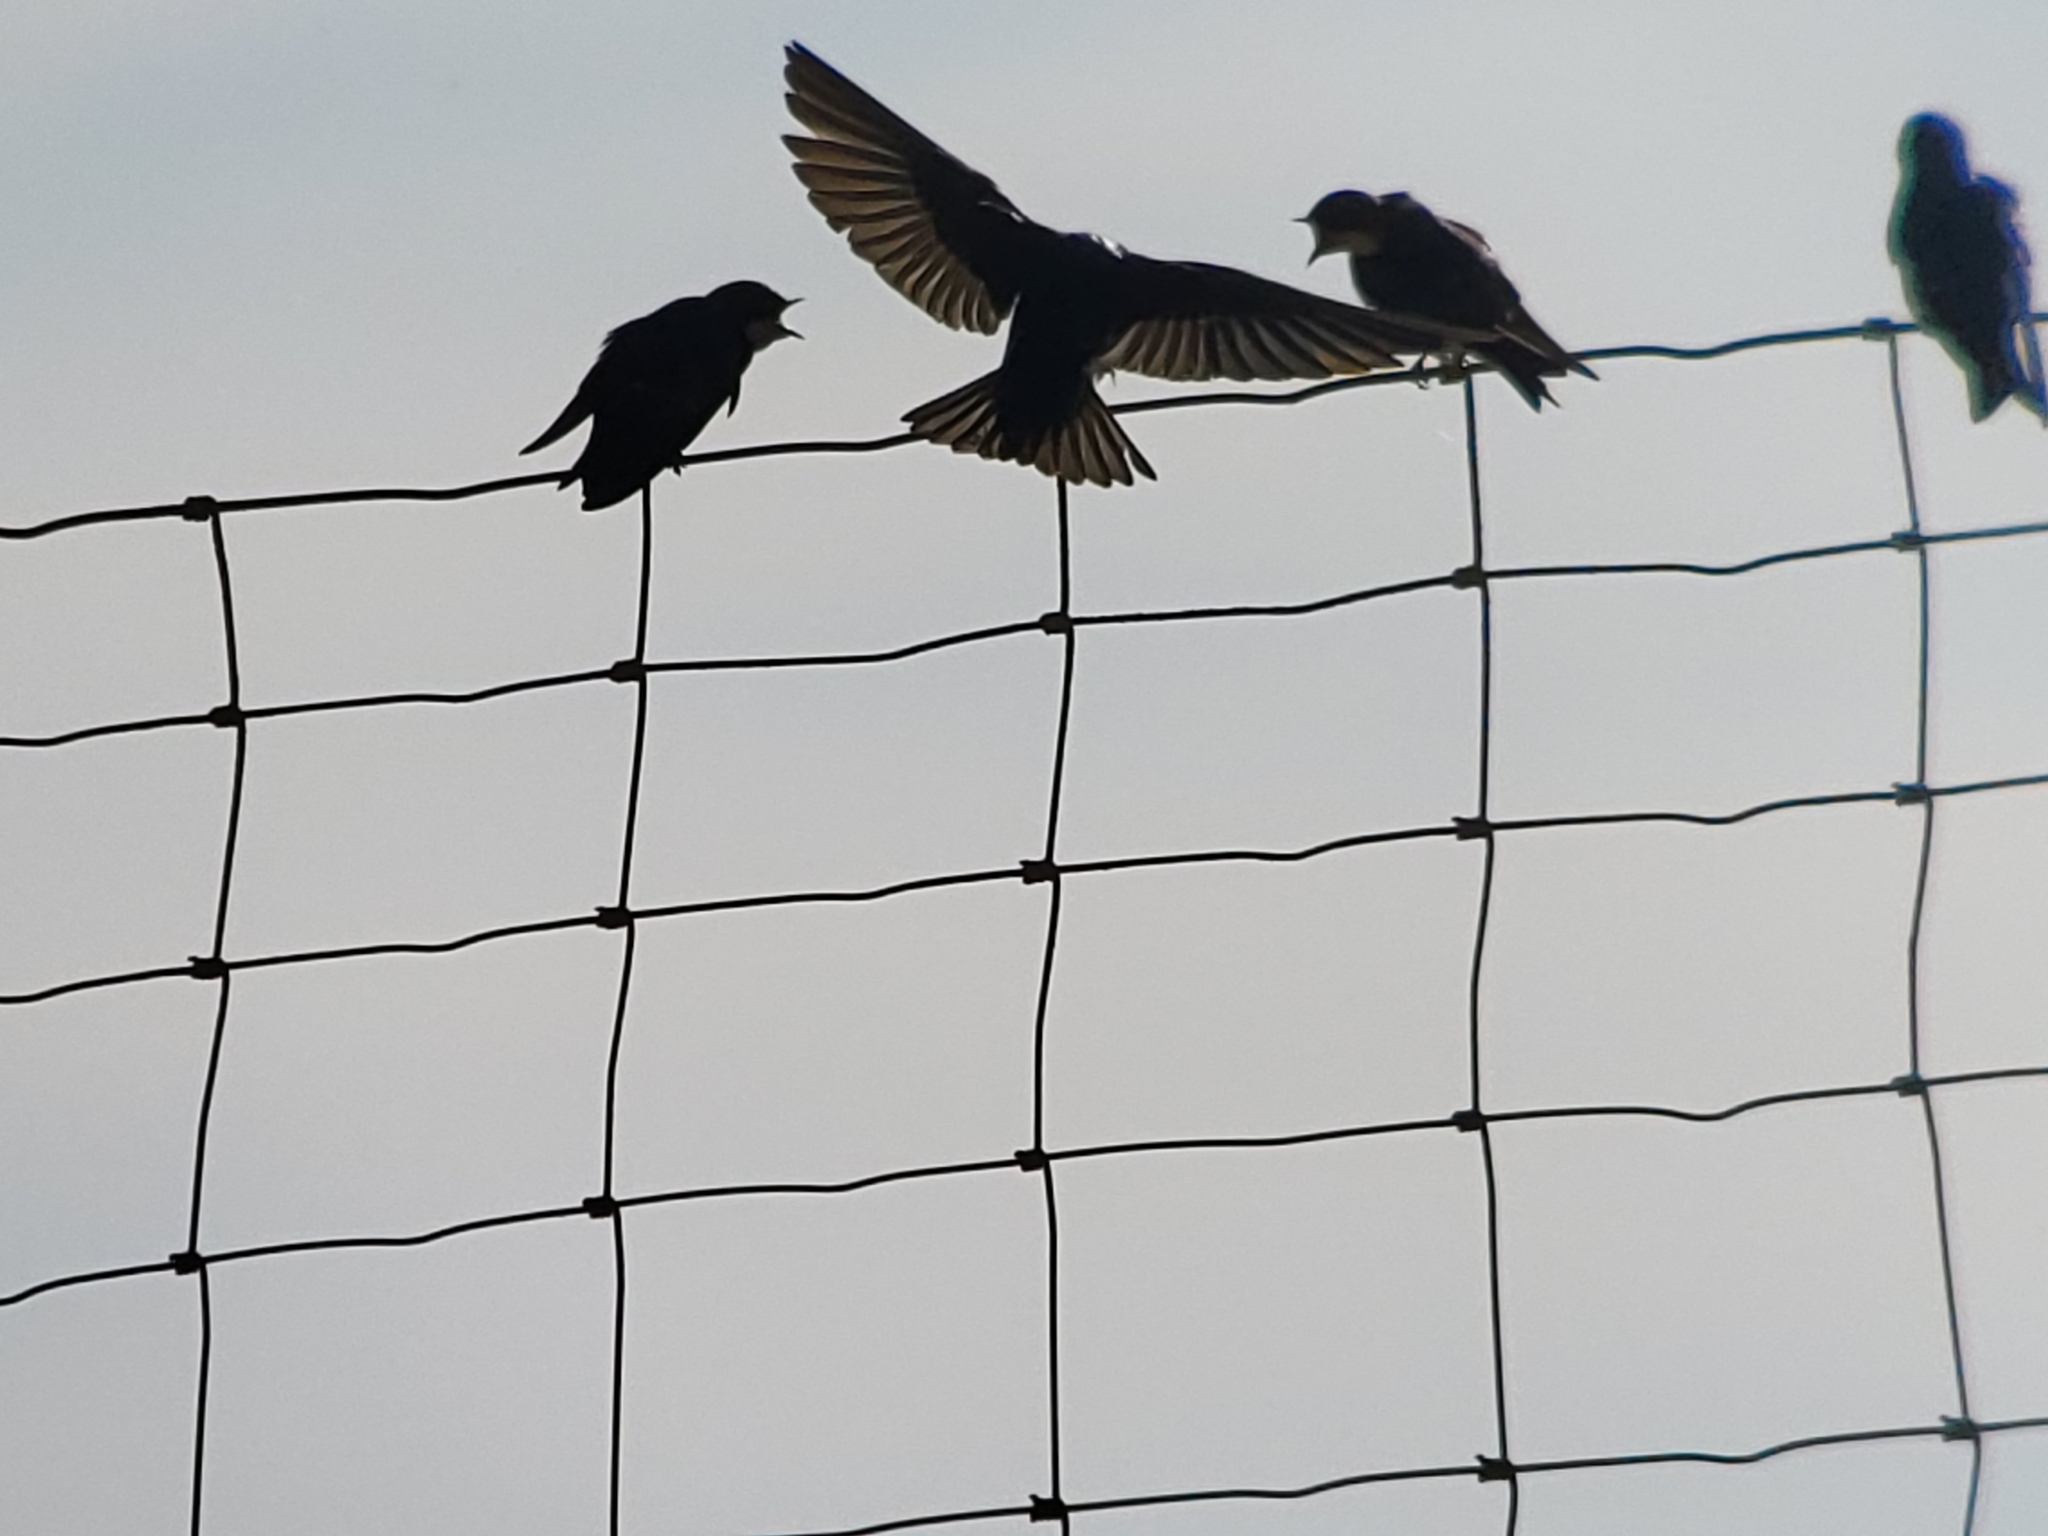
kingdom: Animalia
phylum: Chordata
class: Aves
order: Passeriformes
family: Hirundinidae
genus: Tachycineta
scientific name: Tachycineta bicolor
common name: Tree swallow
